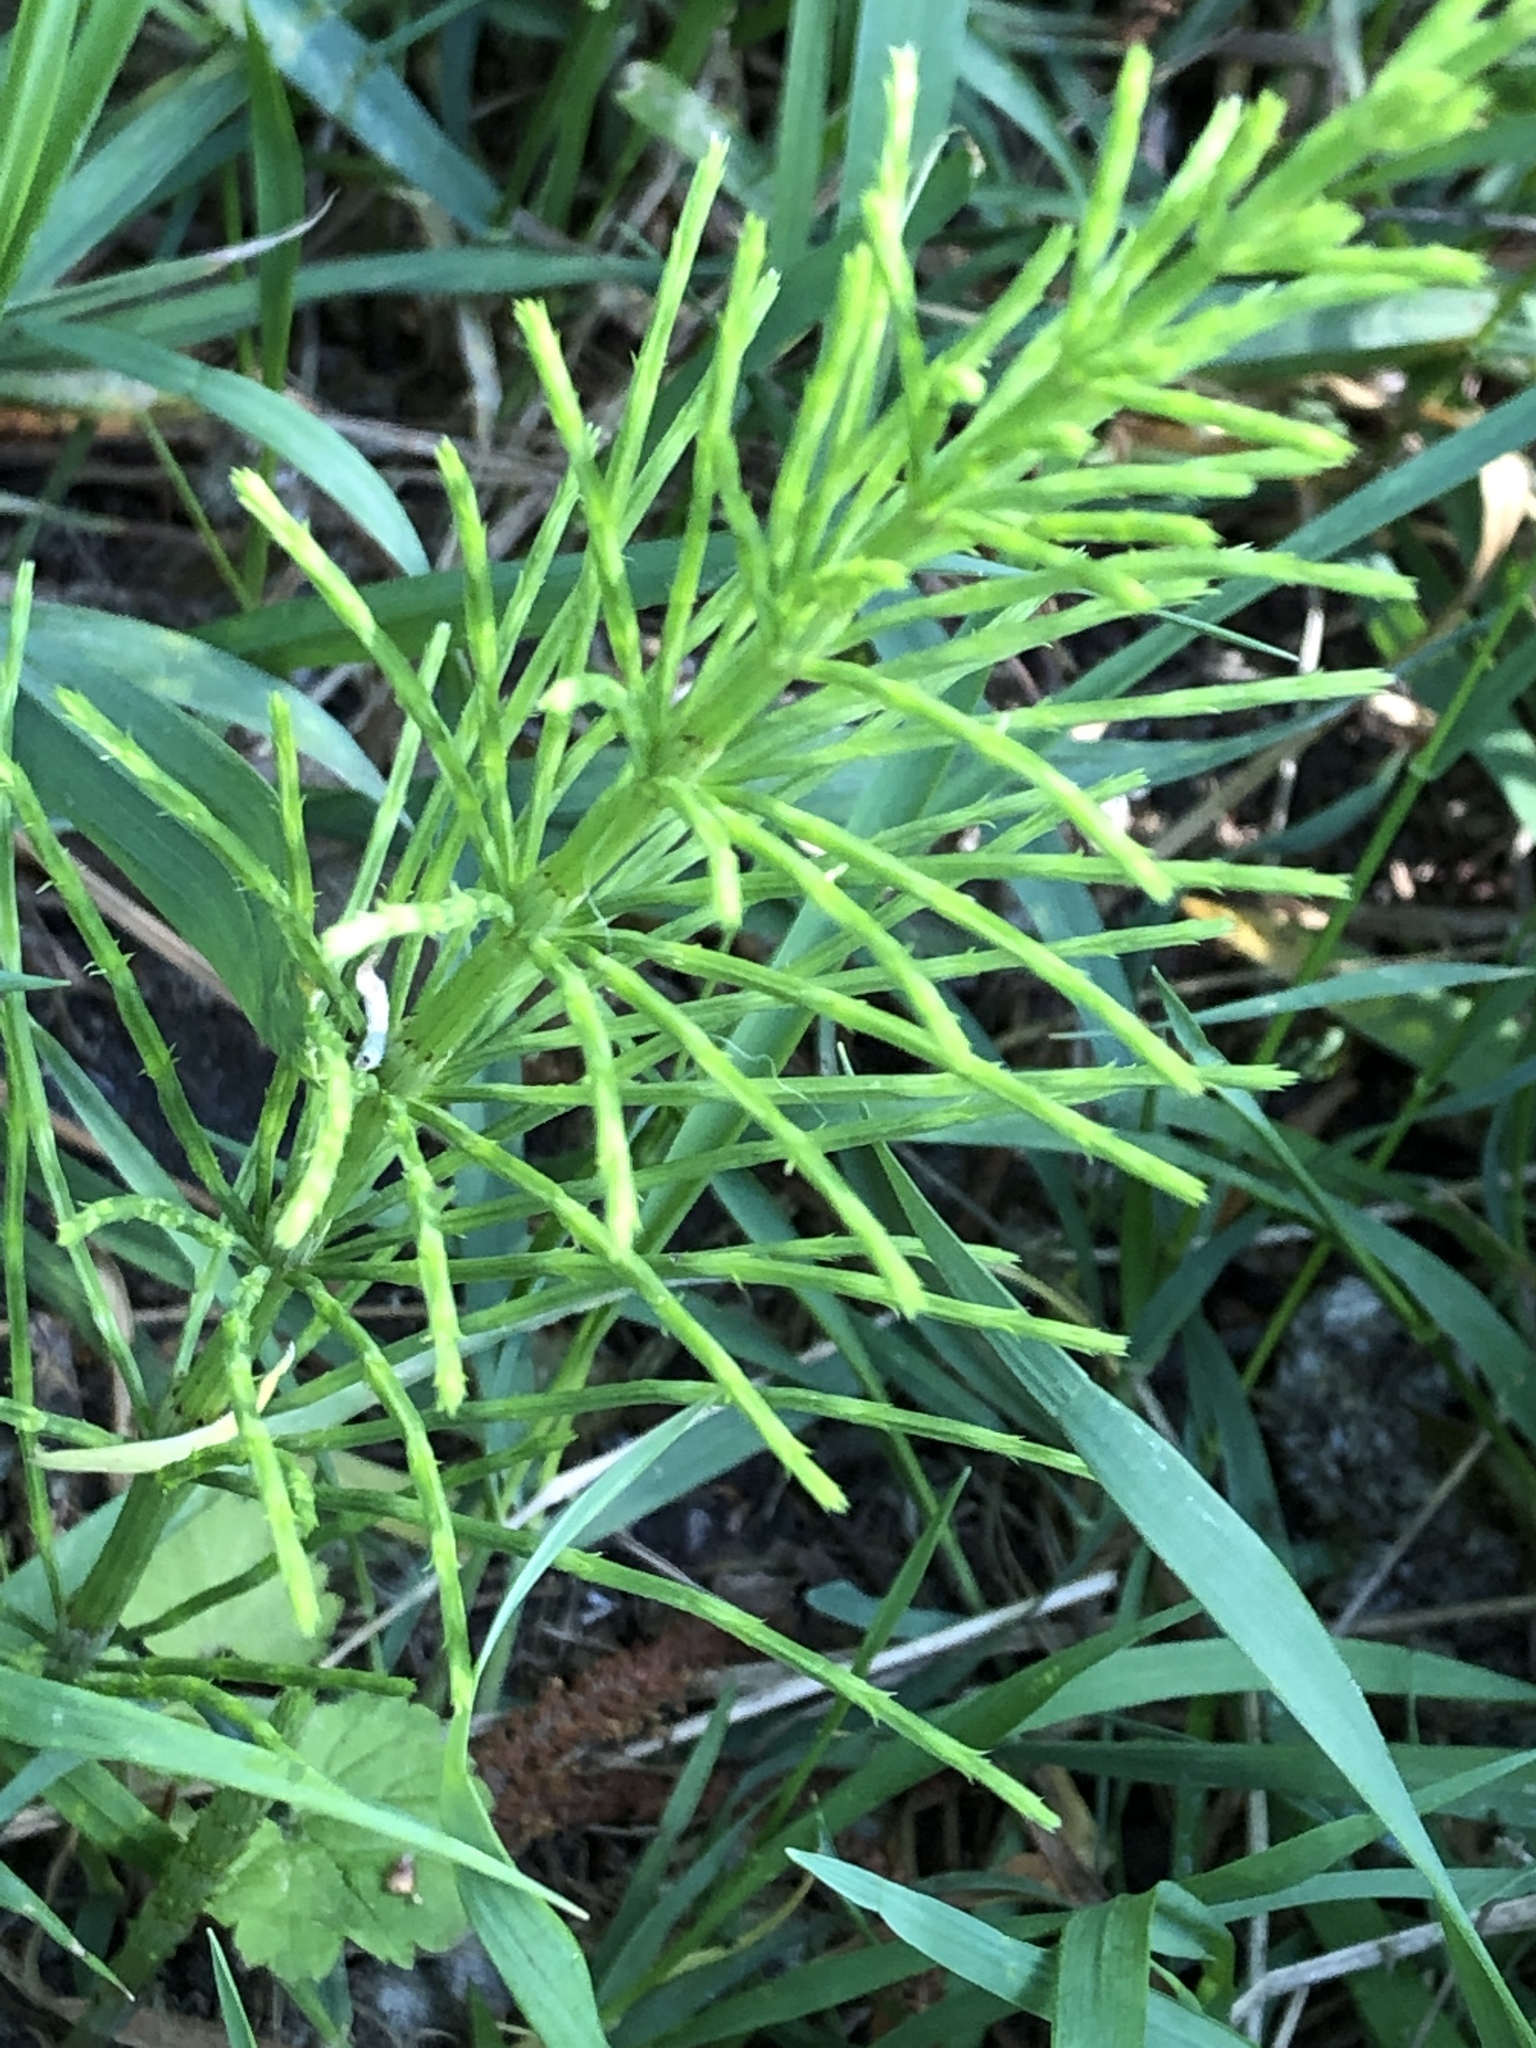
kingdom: Plantae
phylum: Tracheophyta
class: Polypodiopsida
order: Equisetales
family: Equisetaceae
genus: Equisetum
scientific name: Equisetum arvense
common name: Field horsetail
